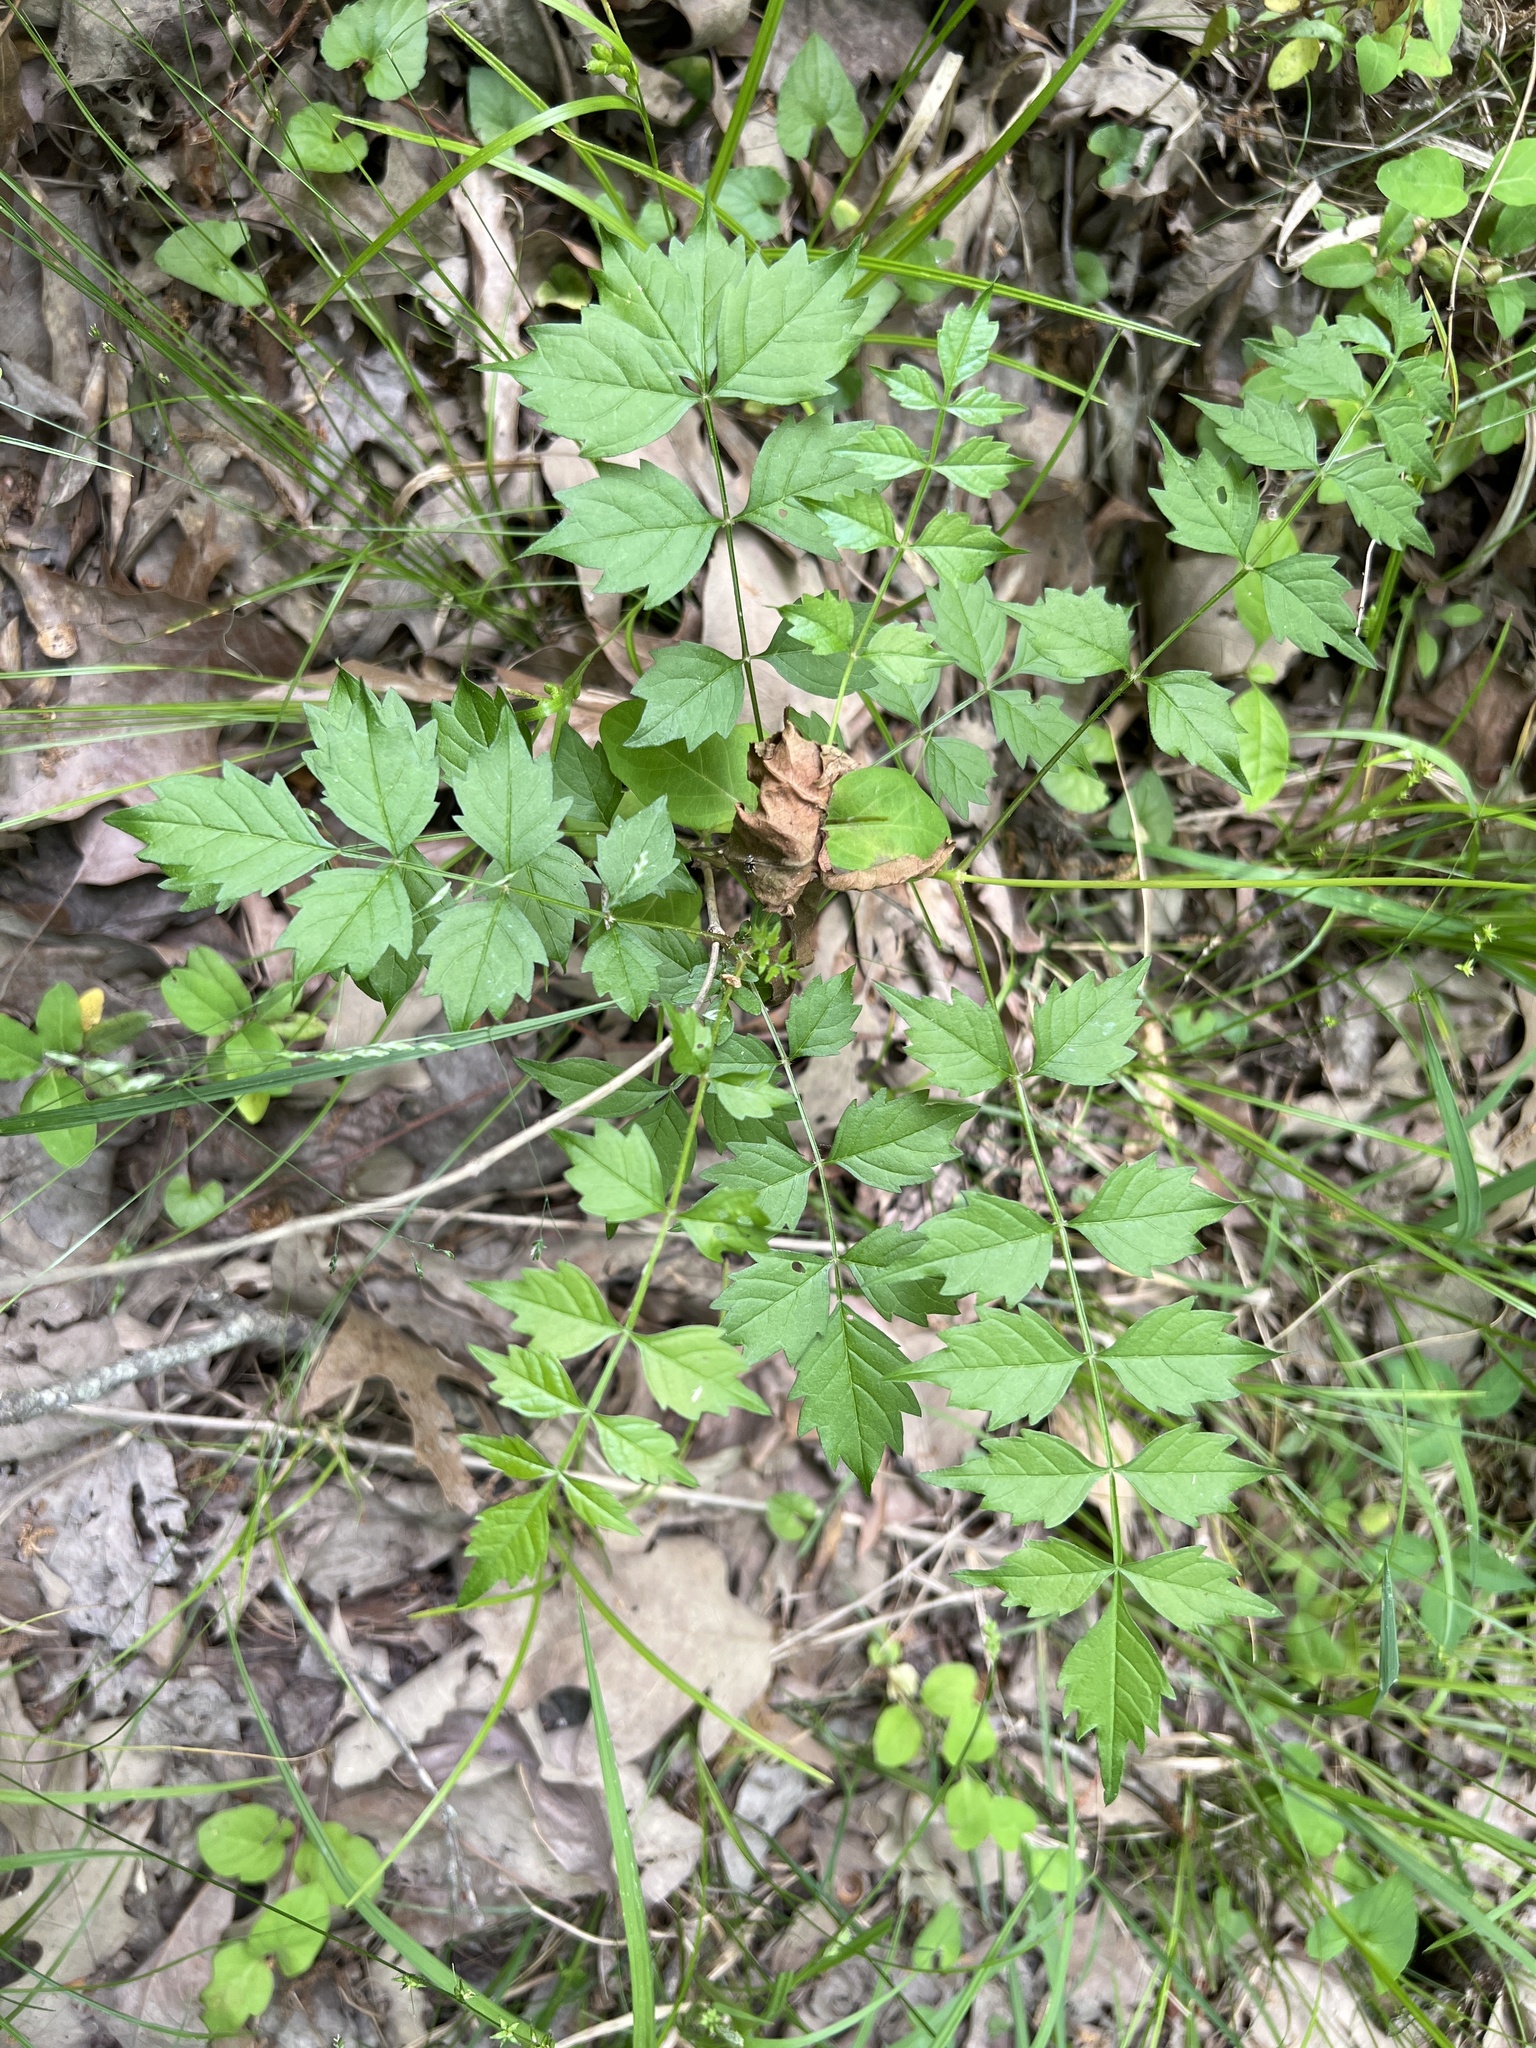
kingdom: Plantae
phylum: Tracheophyta
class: Magnoliopsida
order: Lamiales
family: Bignoniaceae
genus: Campsis
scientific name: Campsis radicans
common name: Trumpet-creeper
